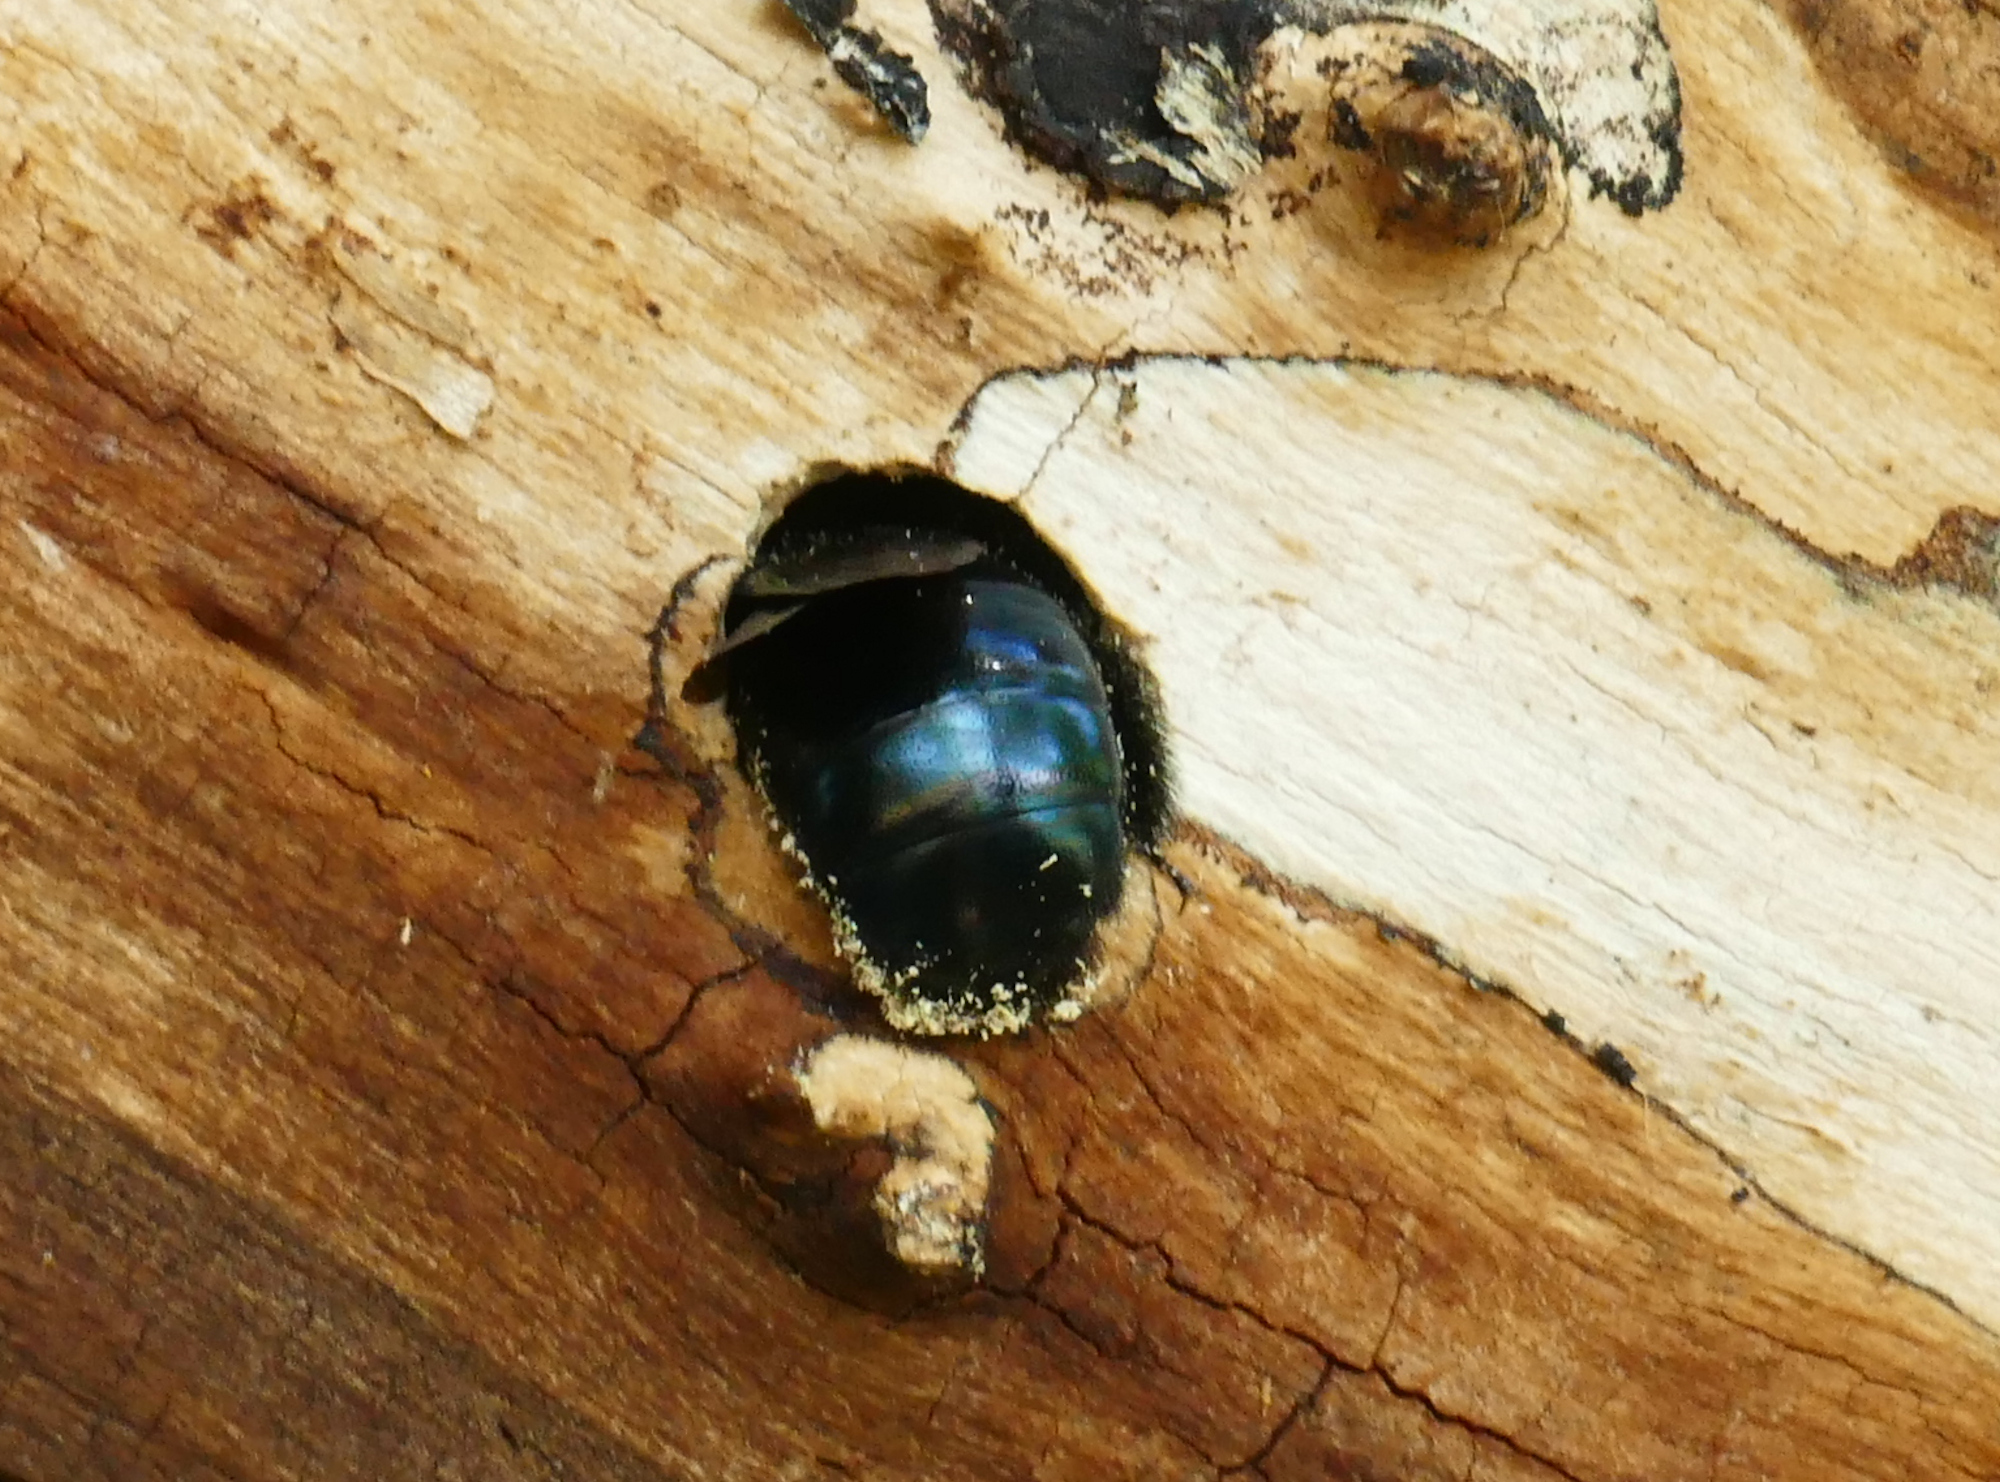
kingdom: Animalia
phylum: Arthropoda
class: Insecta
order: Hymenoptera
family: Apidae
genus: Xylocopa
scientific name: Xylocopa californica
